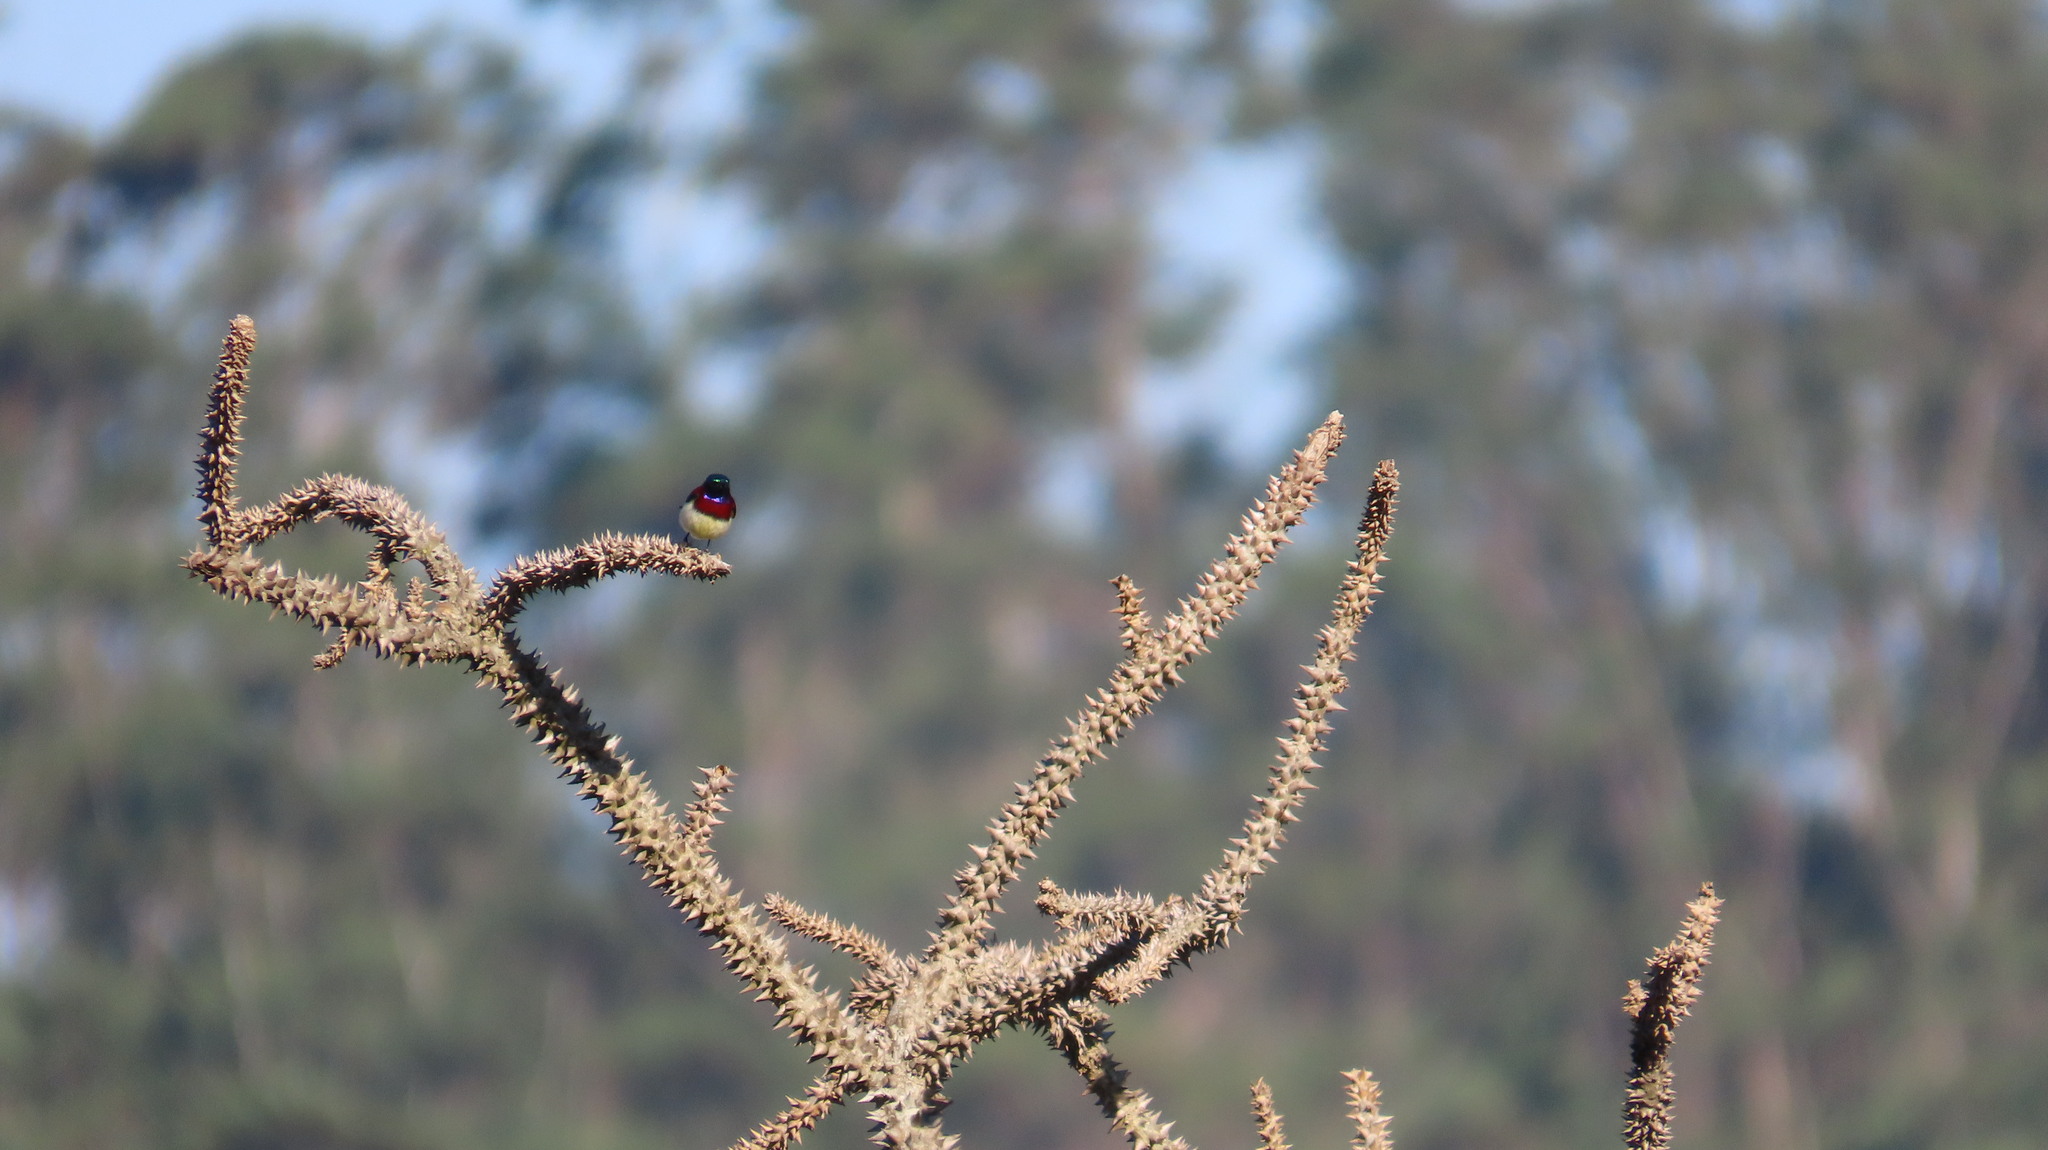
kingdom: Animalia
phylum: Chordata
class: Aves
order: Passeriformes
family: Nectariniidae
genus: Leptocoma
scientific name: Leptocoma minima
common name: Crimson-backed sunbird
